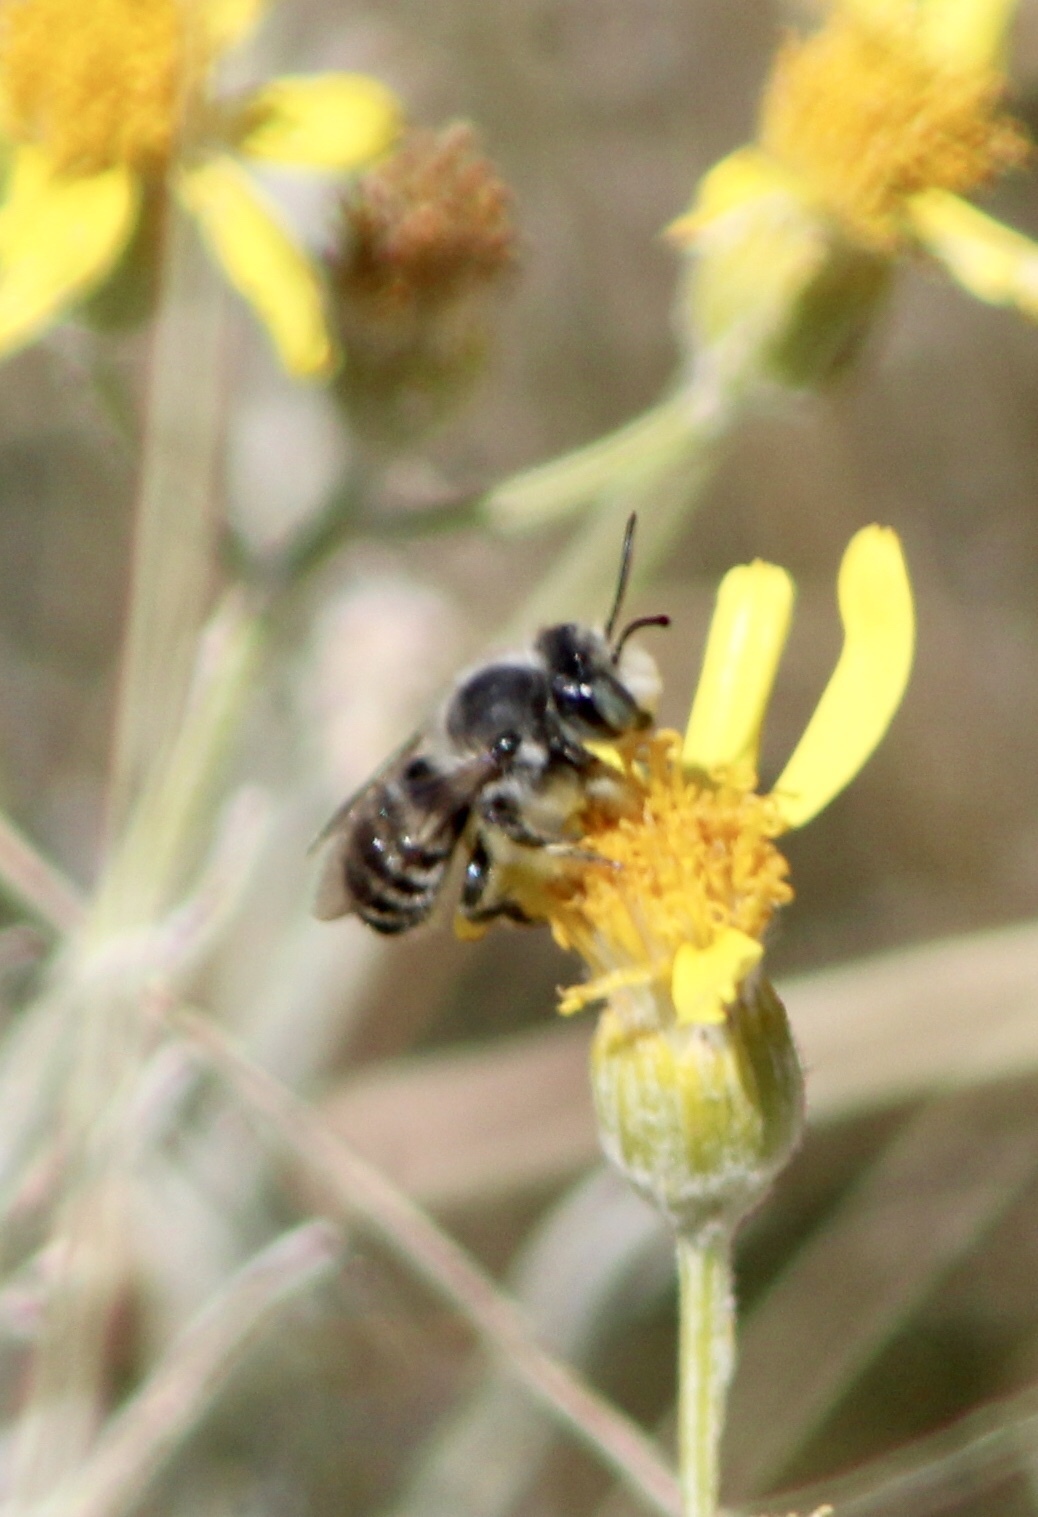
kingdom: Animalia
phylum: Arthropoda
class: Insecta
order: Hymenoptera
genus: Megachiloides
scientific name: Megachiloides
